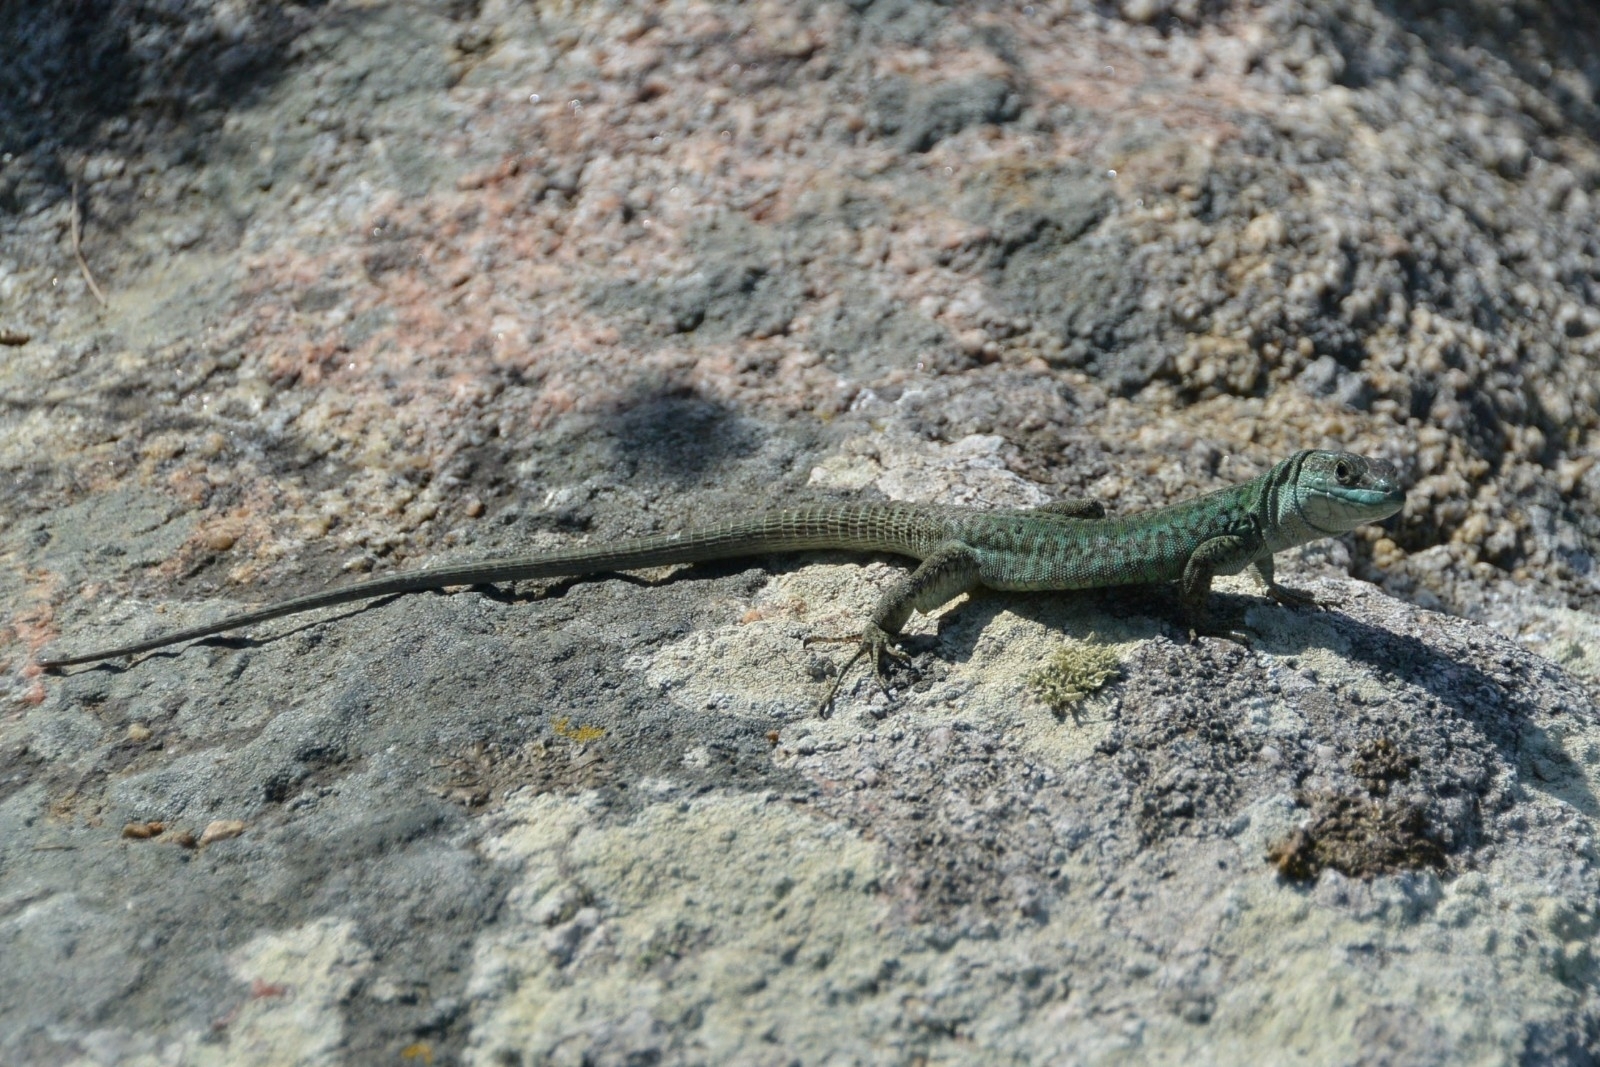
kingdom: Animalia
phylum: Chordata
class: Squamata
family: Lacertidae
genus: Podarcis
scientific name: Podarcis siculus
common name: Italian wall lizard
